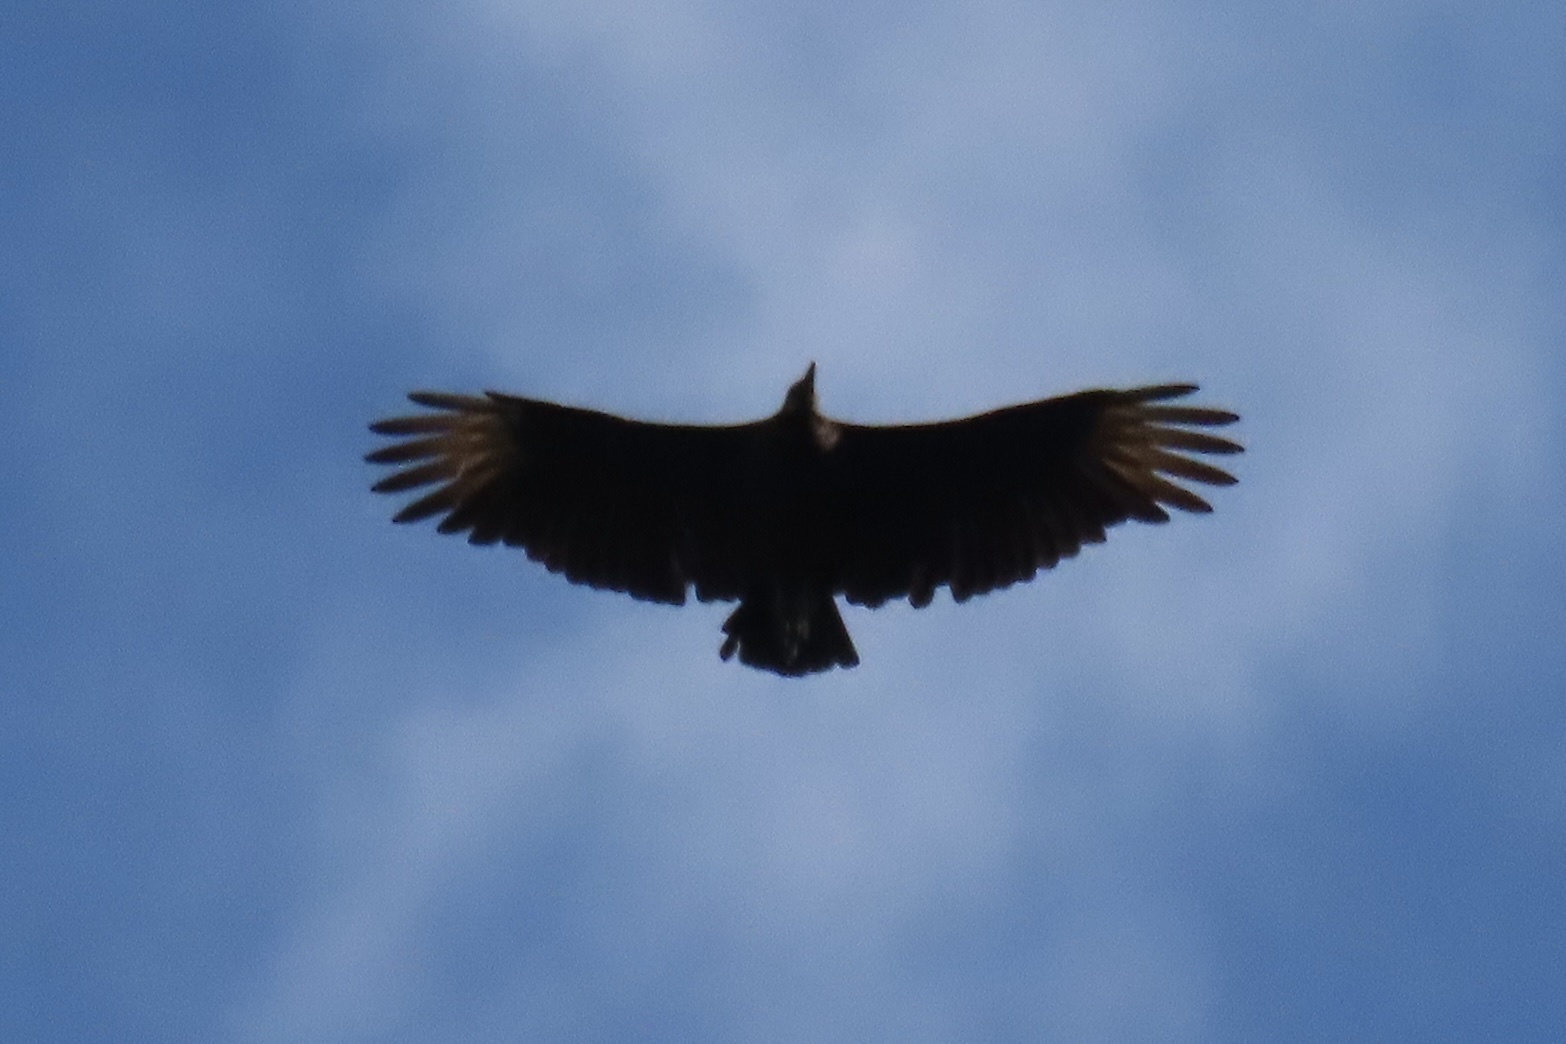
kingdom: Animalia
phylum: Chordata
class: Aves
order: Accipitriformes
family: Cathartidae
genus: Coragyps
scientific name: Coragyps atratus
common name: Black vulture
